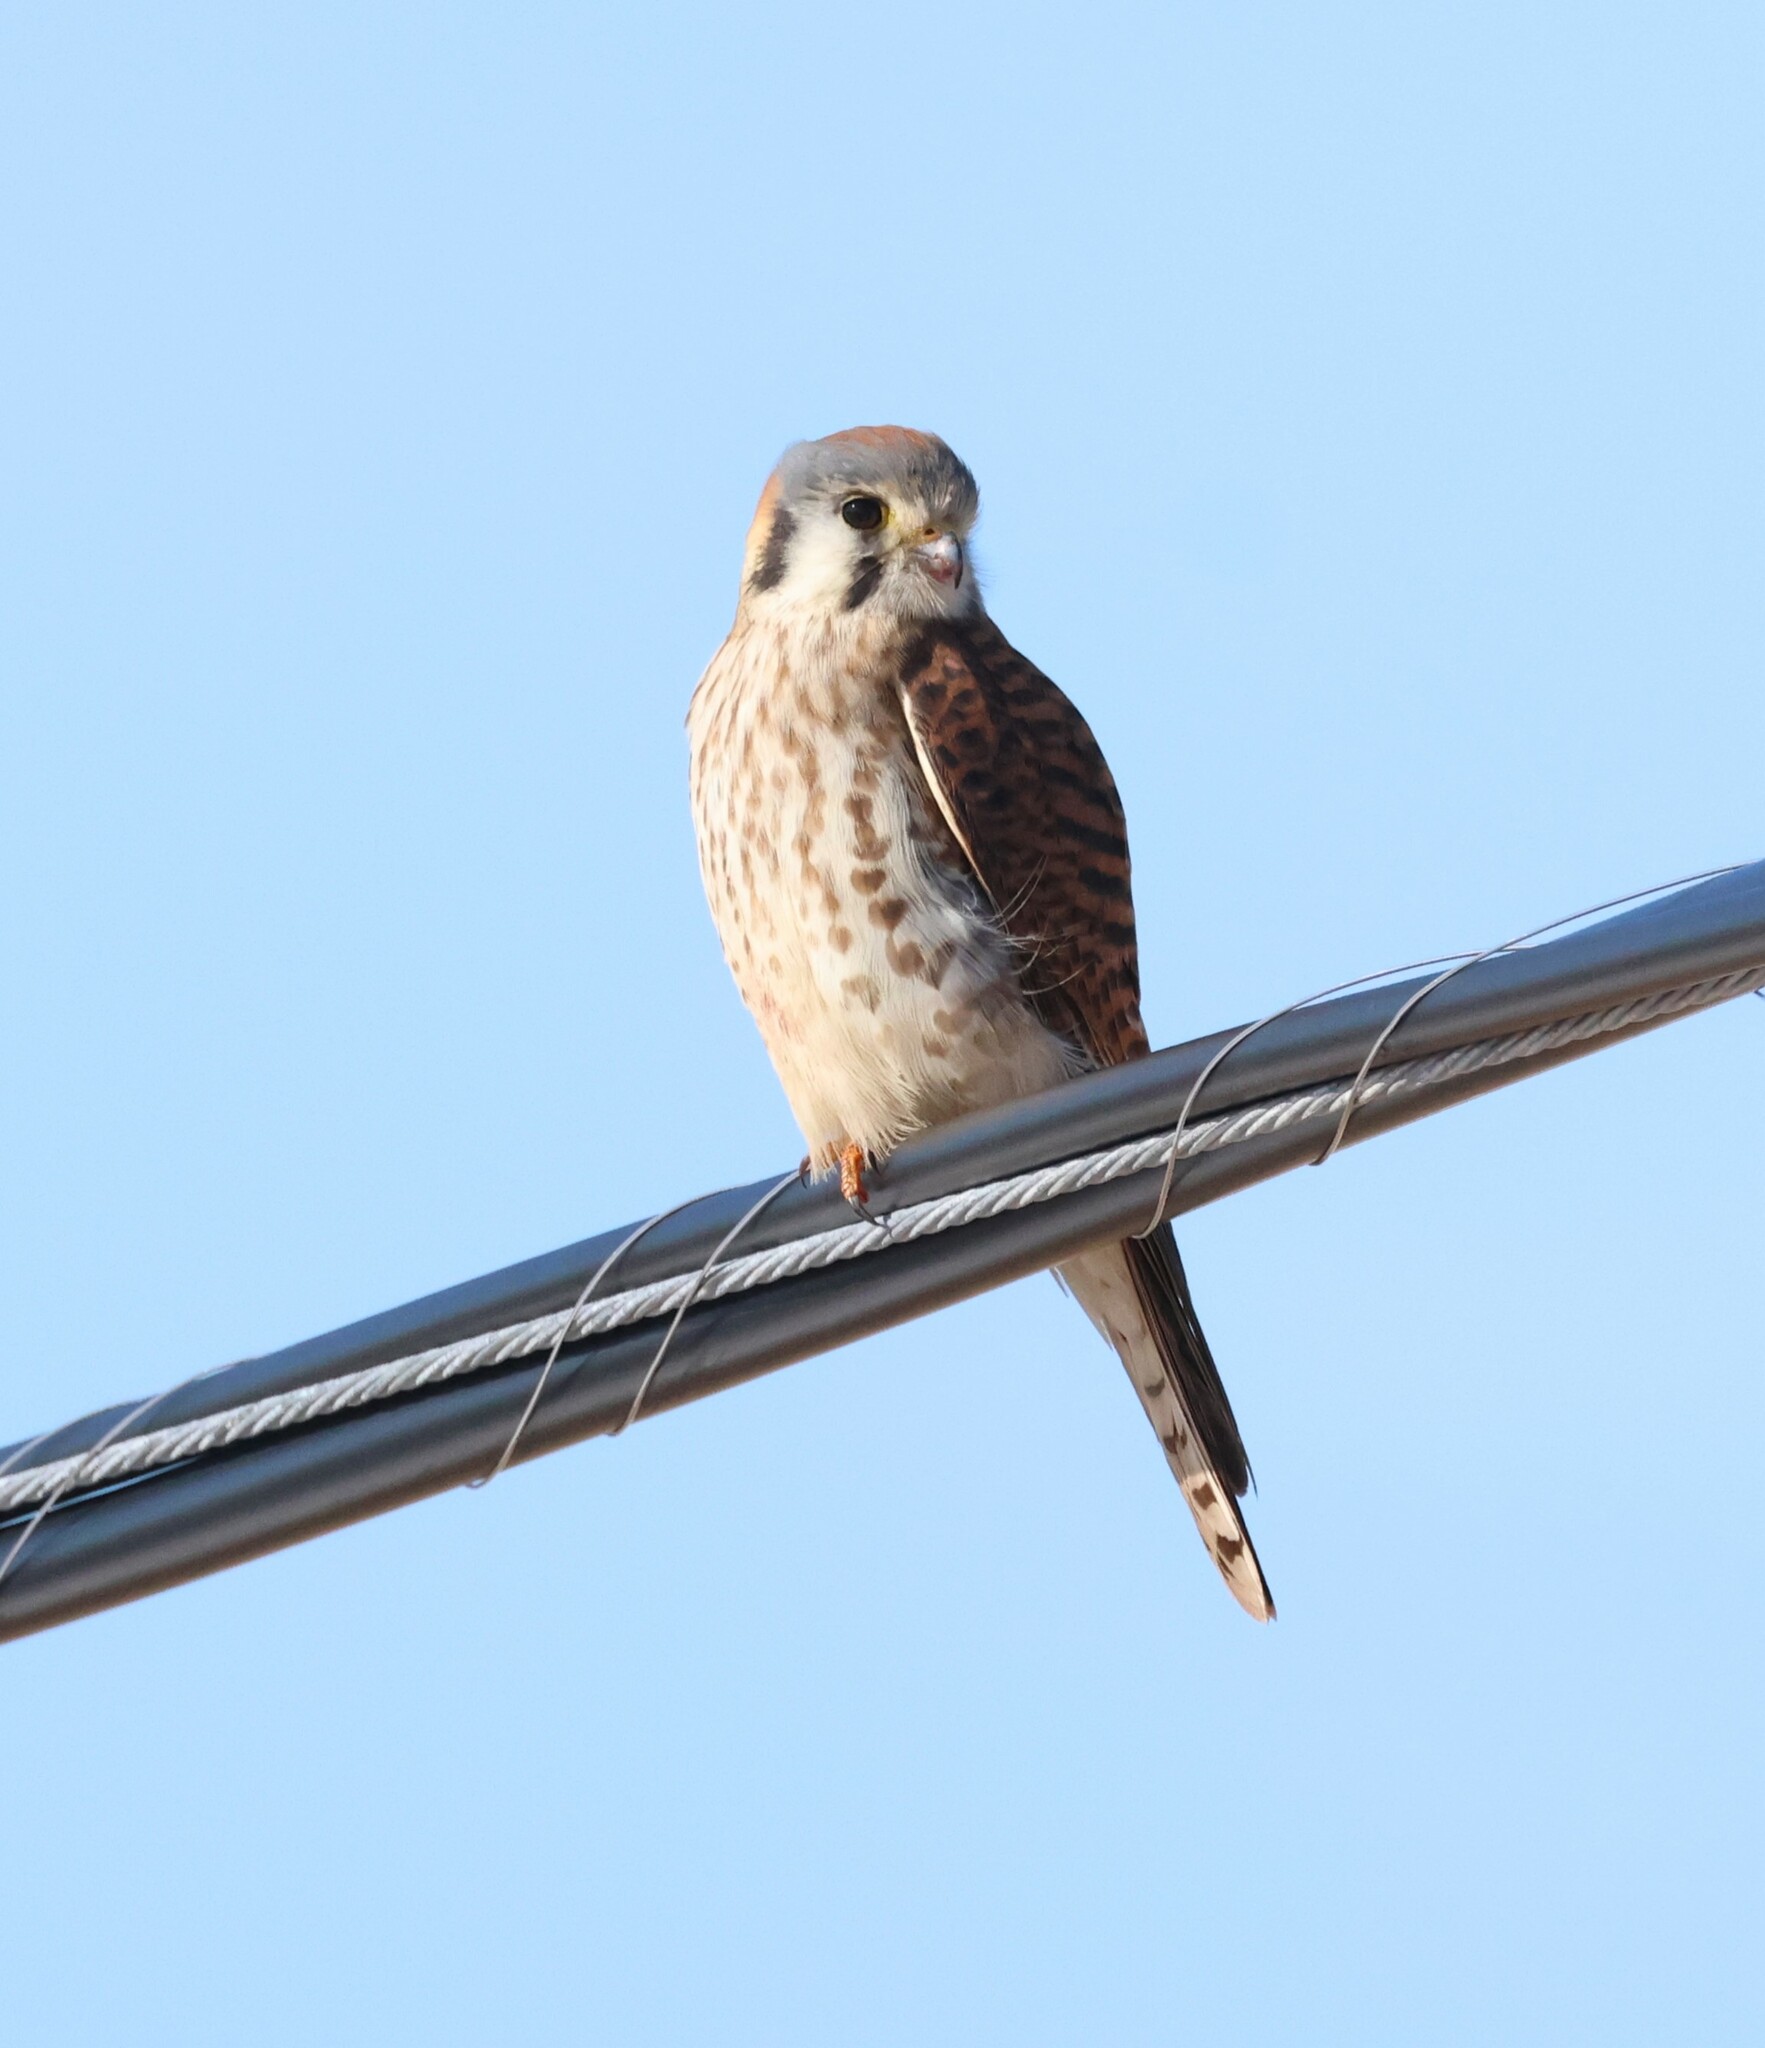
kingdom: Animalia
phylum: Chordata
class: Aves
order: Falconiformes
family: Falconidae
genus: Falco
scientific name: Falco sparverius
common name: American kestrel
